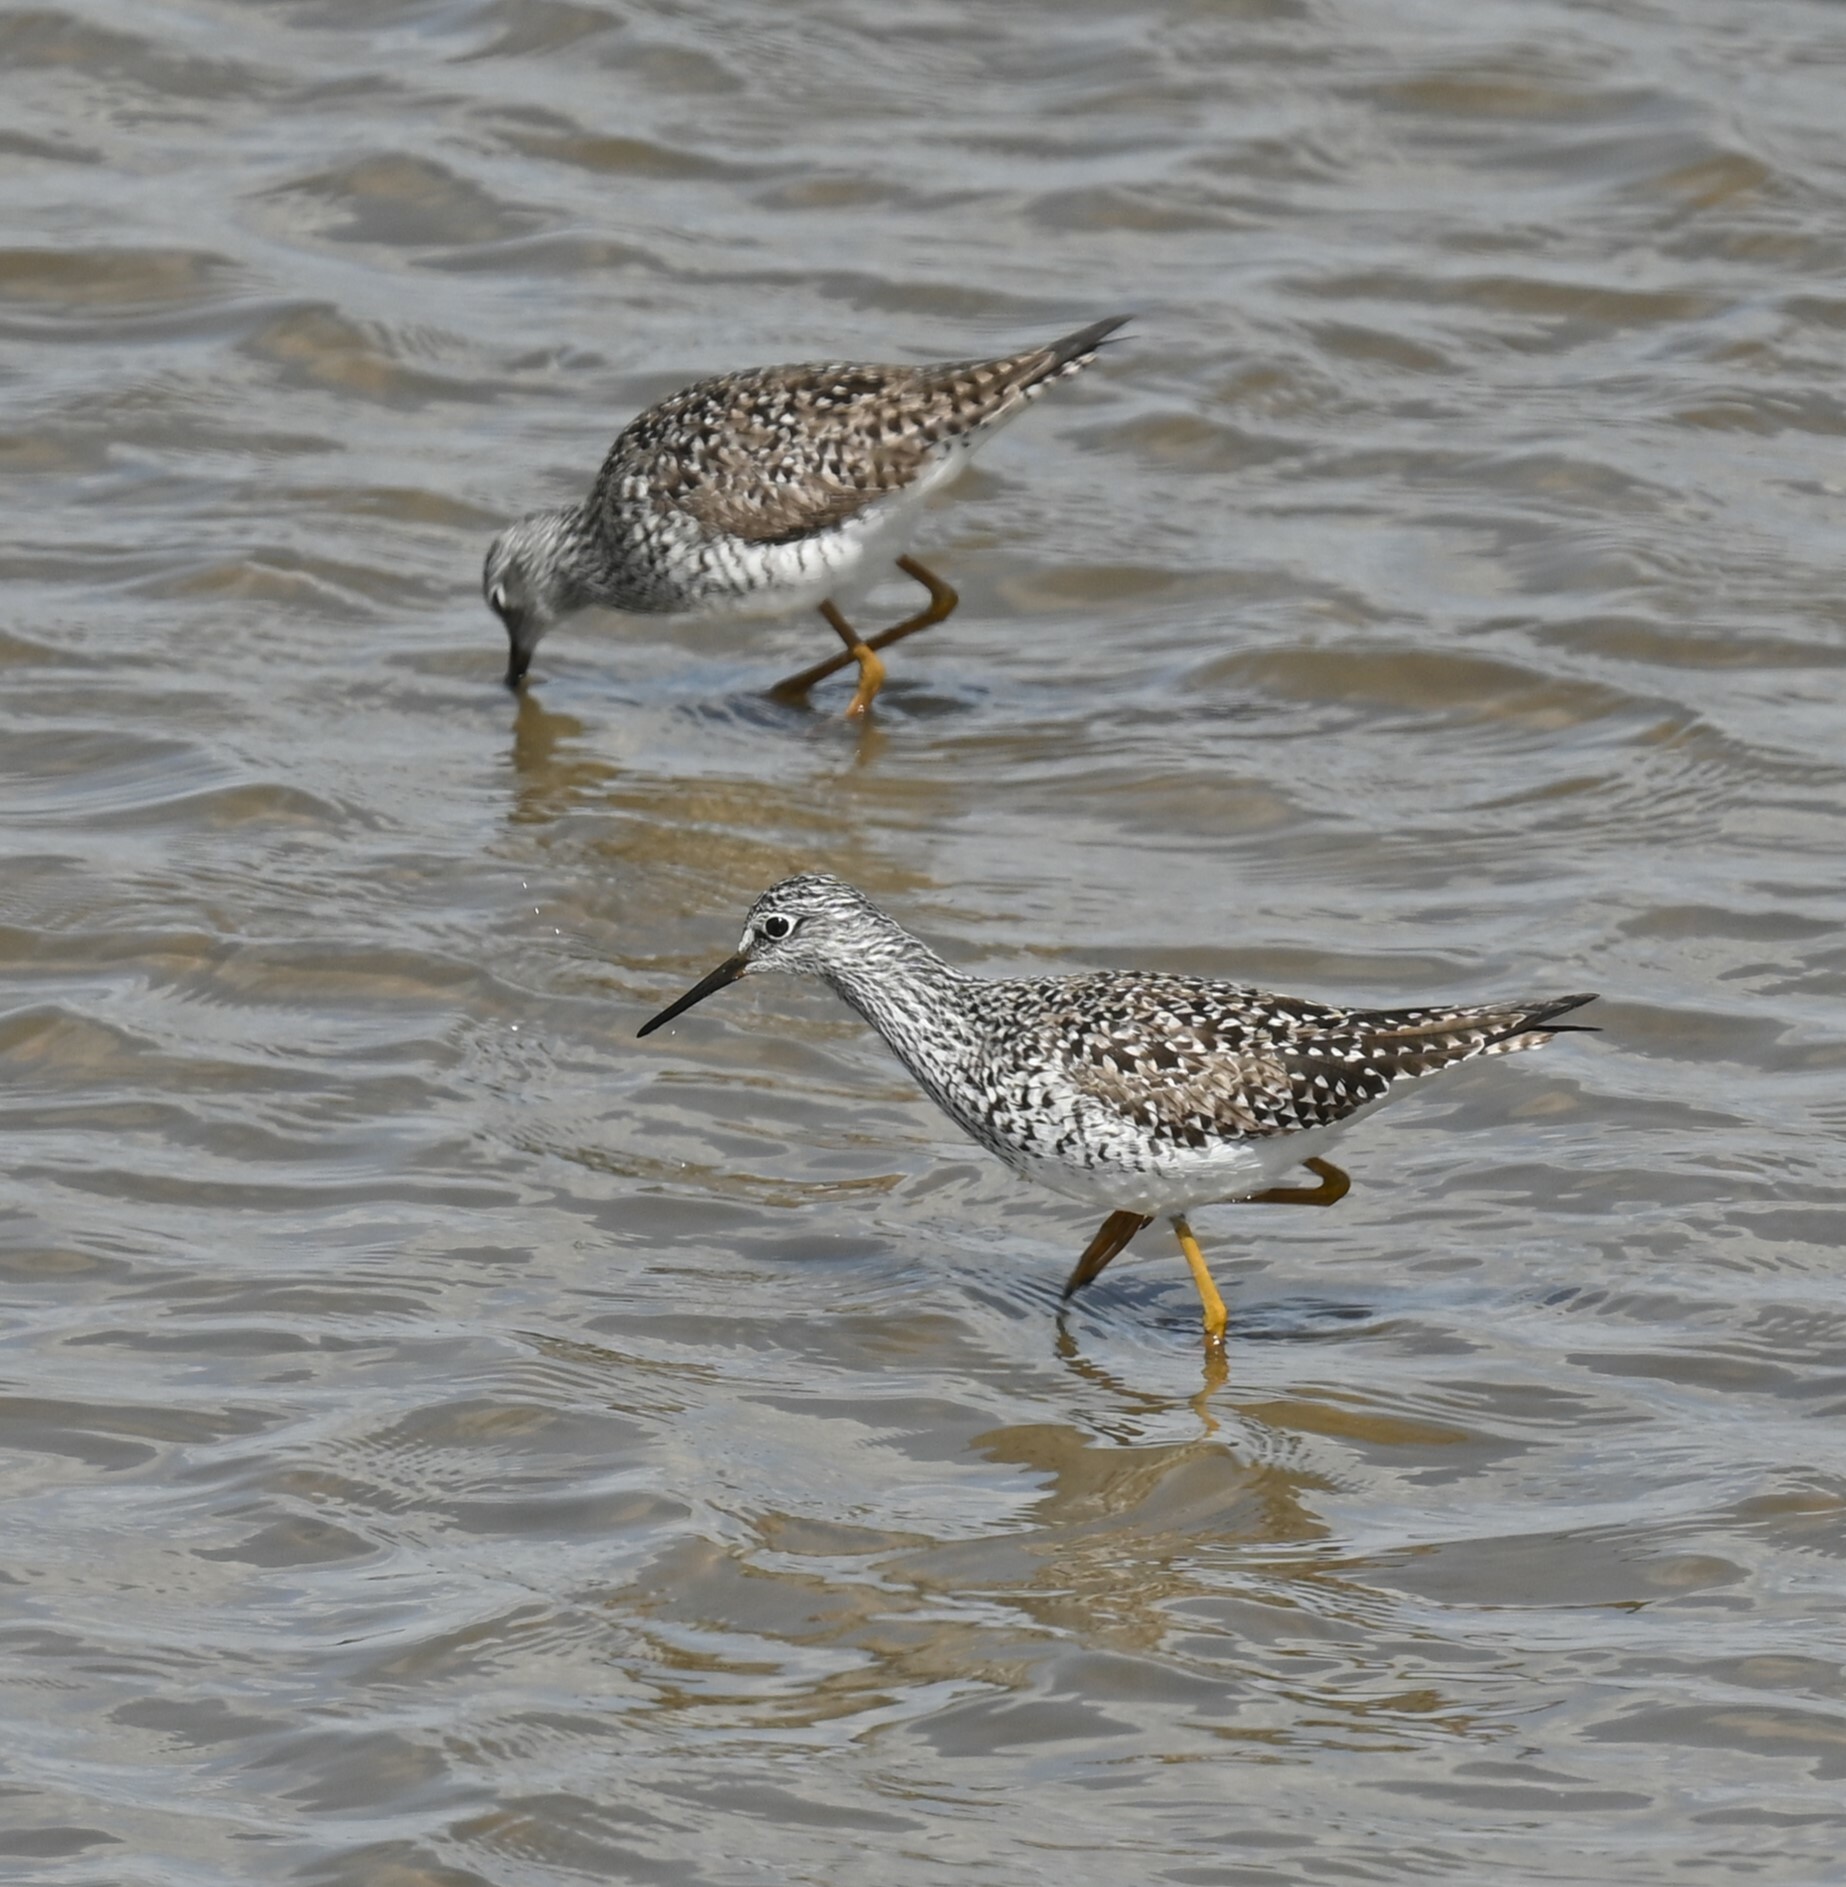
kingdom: Animalia
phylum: Chordata
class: Aves
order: Charadriiformes
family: Scolopacidae
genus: Tringa
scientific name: Tringa flavipes
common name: Lesser yellowlegs
